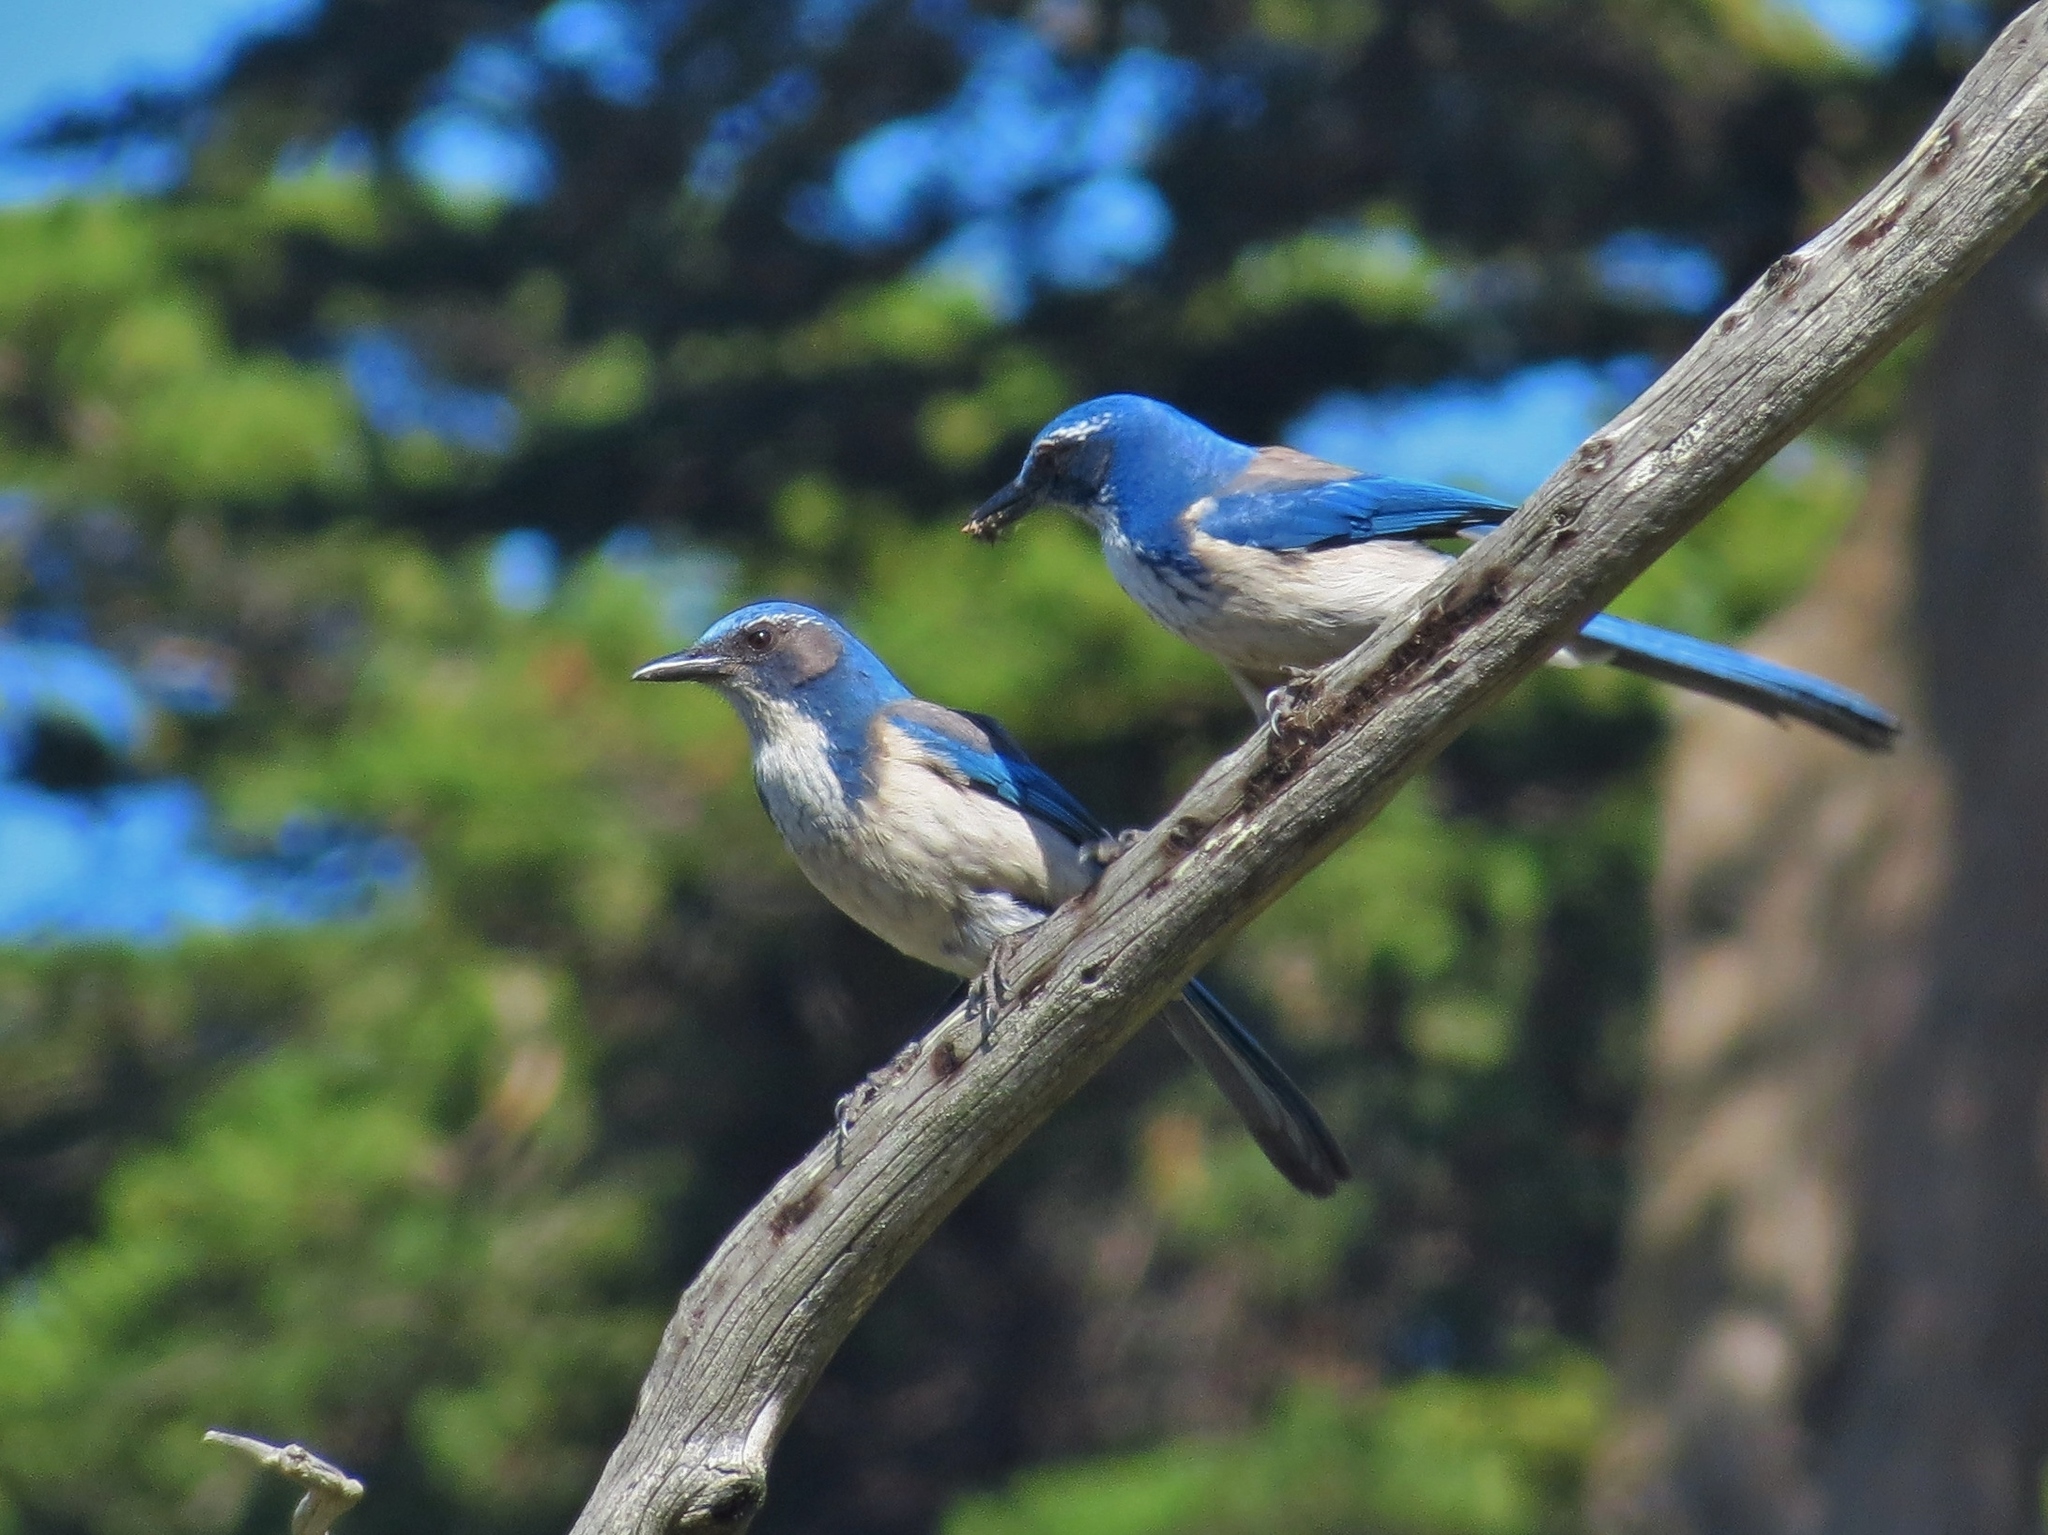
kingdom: Animalia
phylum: Chordata
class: Aves
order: Passeriformes
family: Corvidae
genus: Aphelocoma
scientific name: Aphelocoma californica
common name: California scrub-jay
